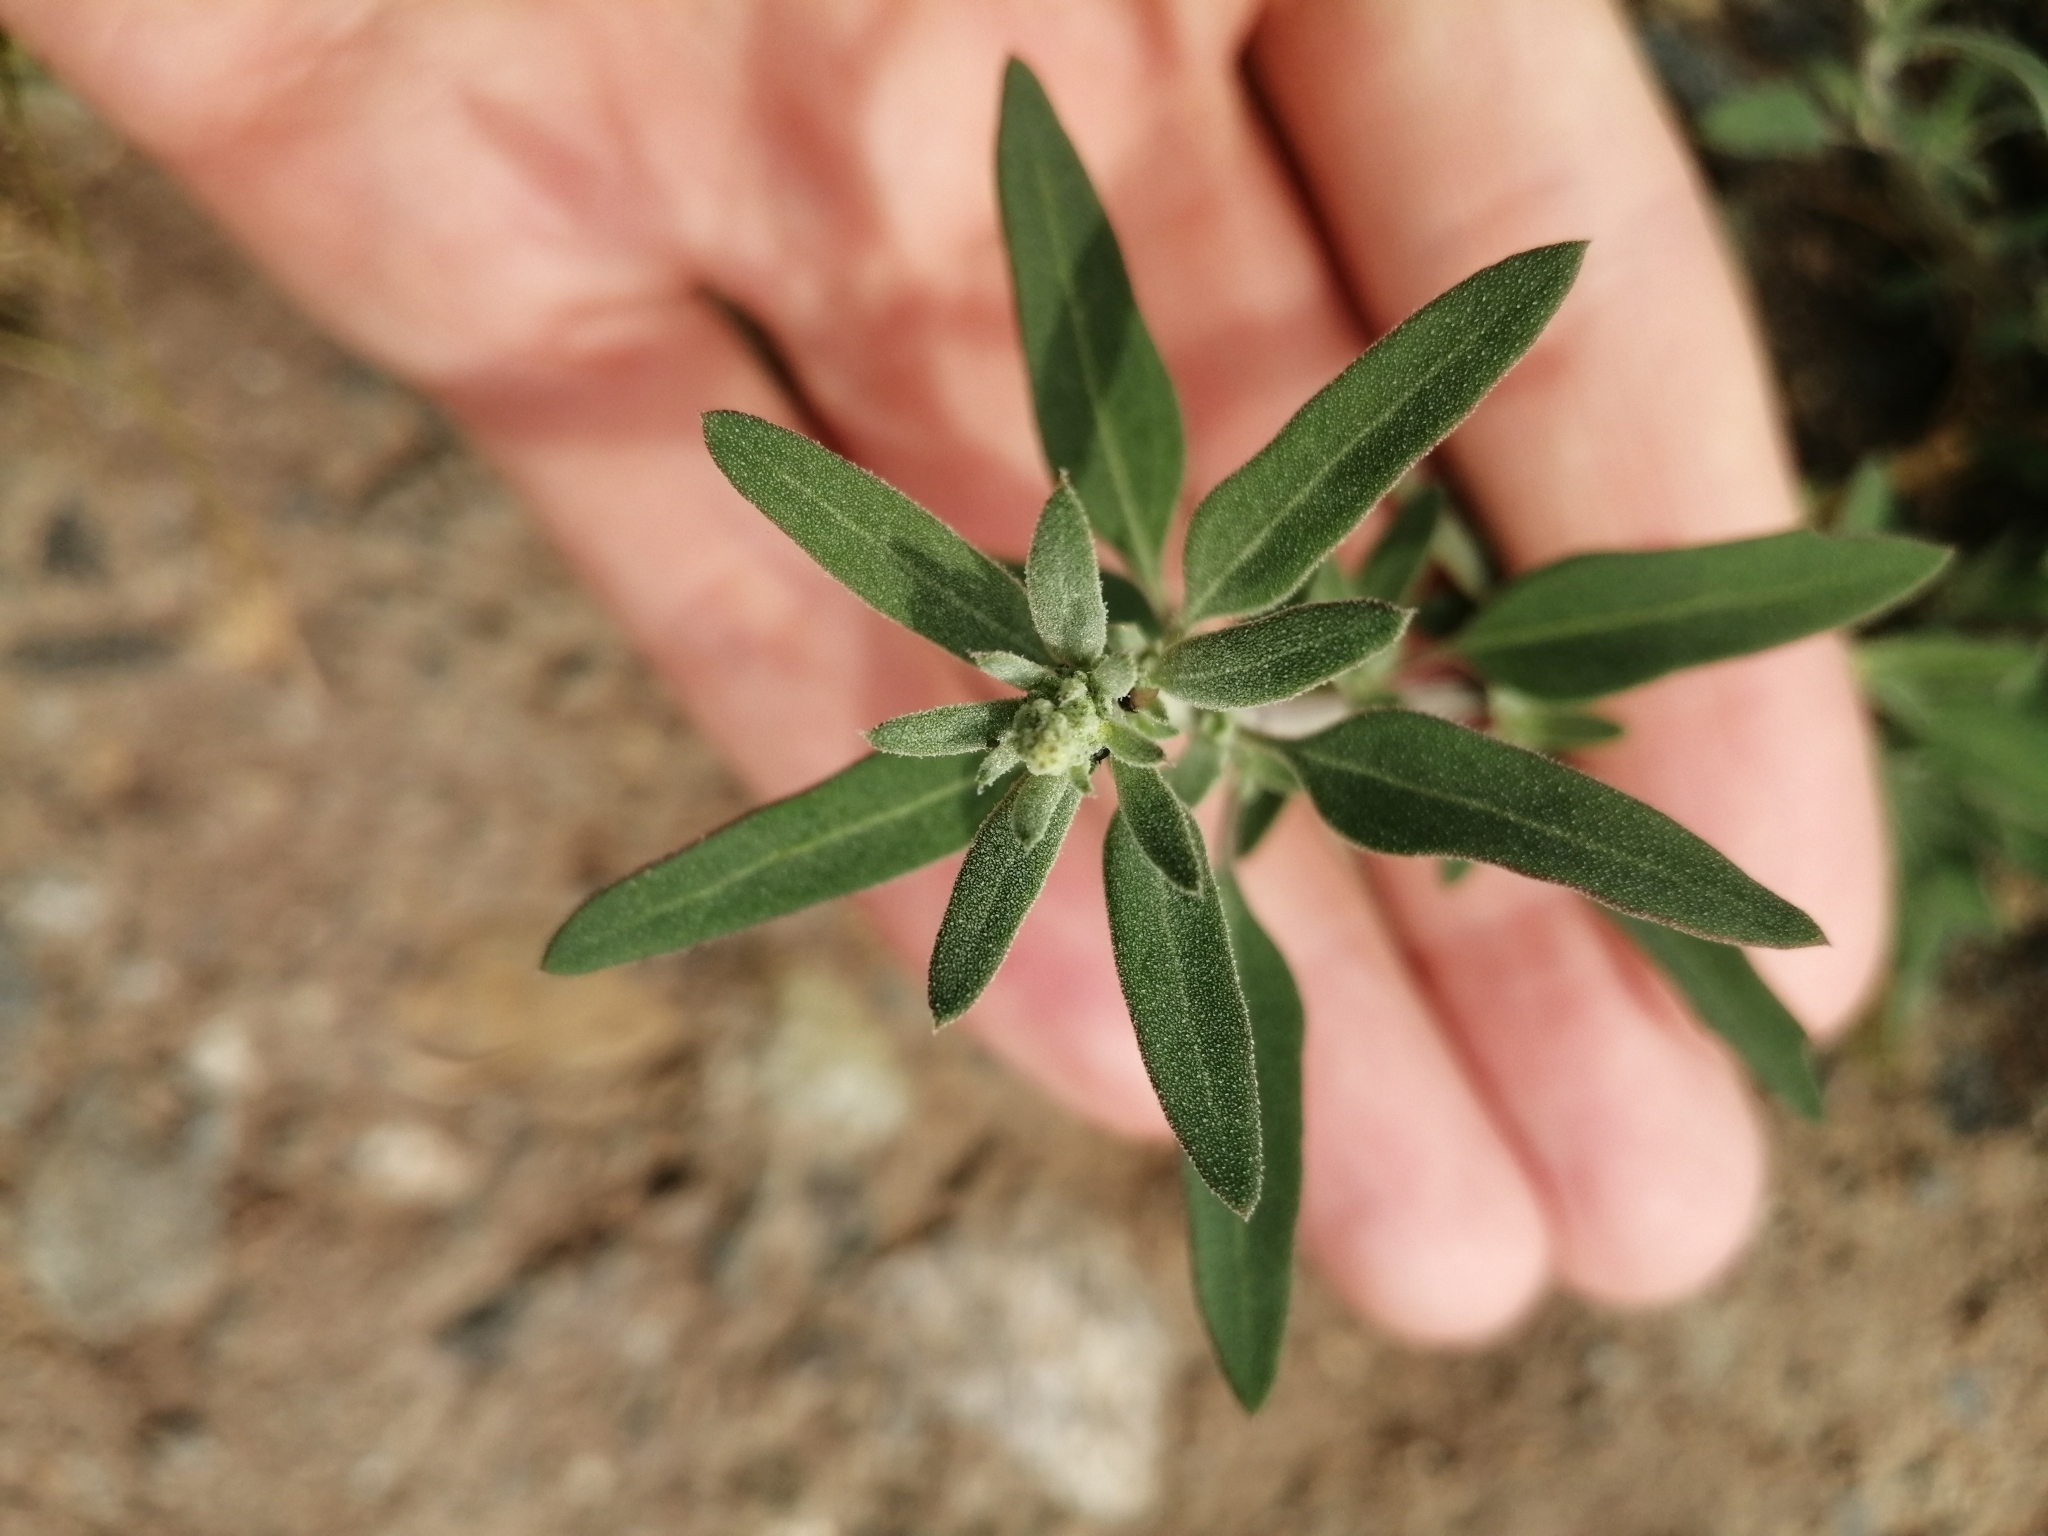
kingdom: Plantae
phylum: Tracheophyta
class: Magnoliopsida
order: Caryophyllales
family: Amaranthaceae
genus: Chenopodium
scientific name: Chenopodium striatiforme
